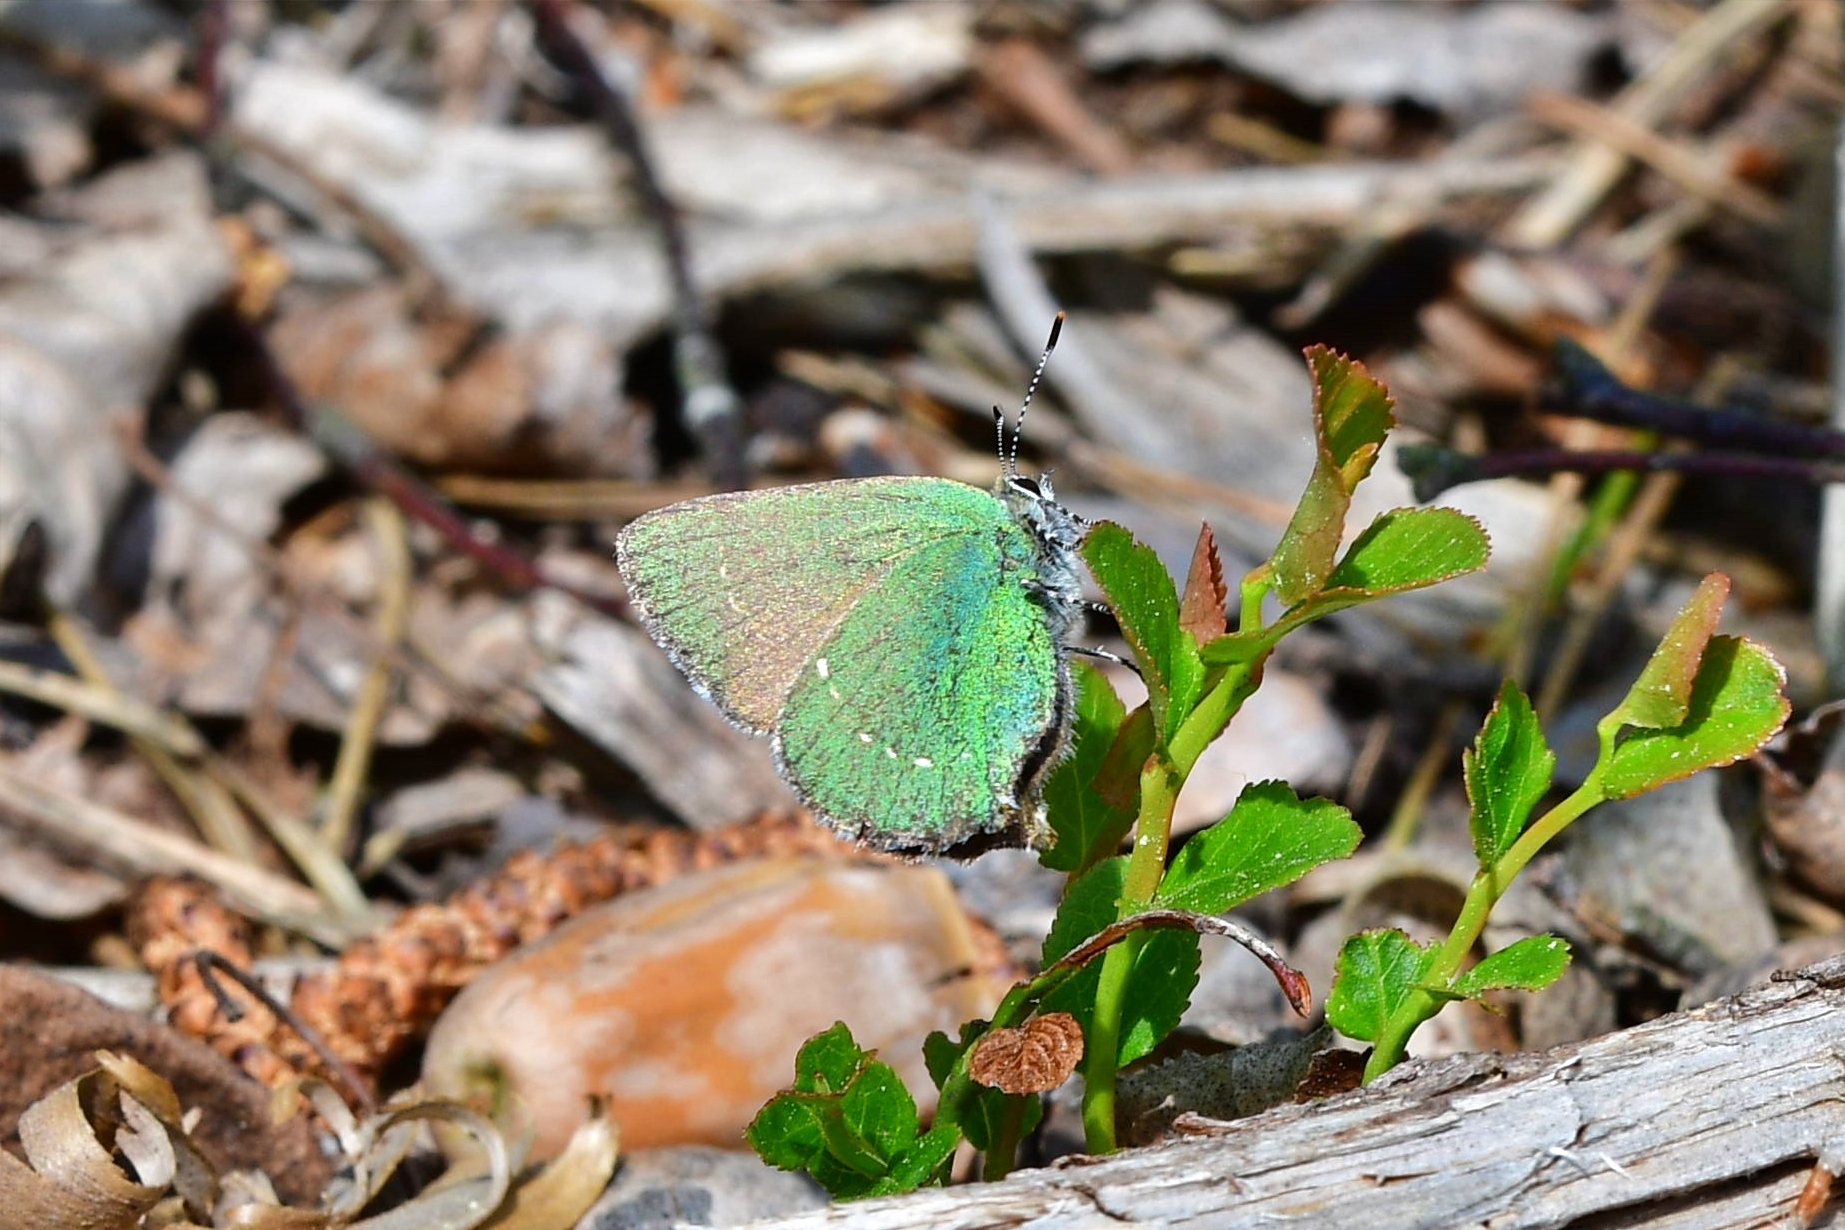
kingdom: Animalia
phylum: Arthropoda
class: Insecta
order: Lepidoptera
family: Lycaenidae
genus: Callophrys
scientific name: Callophrys rubi
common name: Green hairstreak
